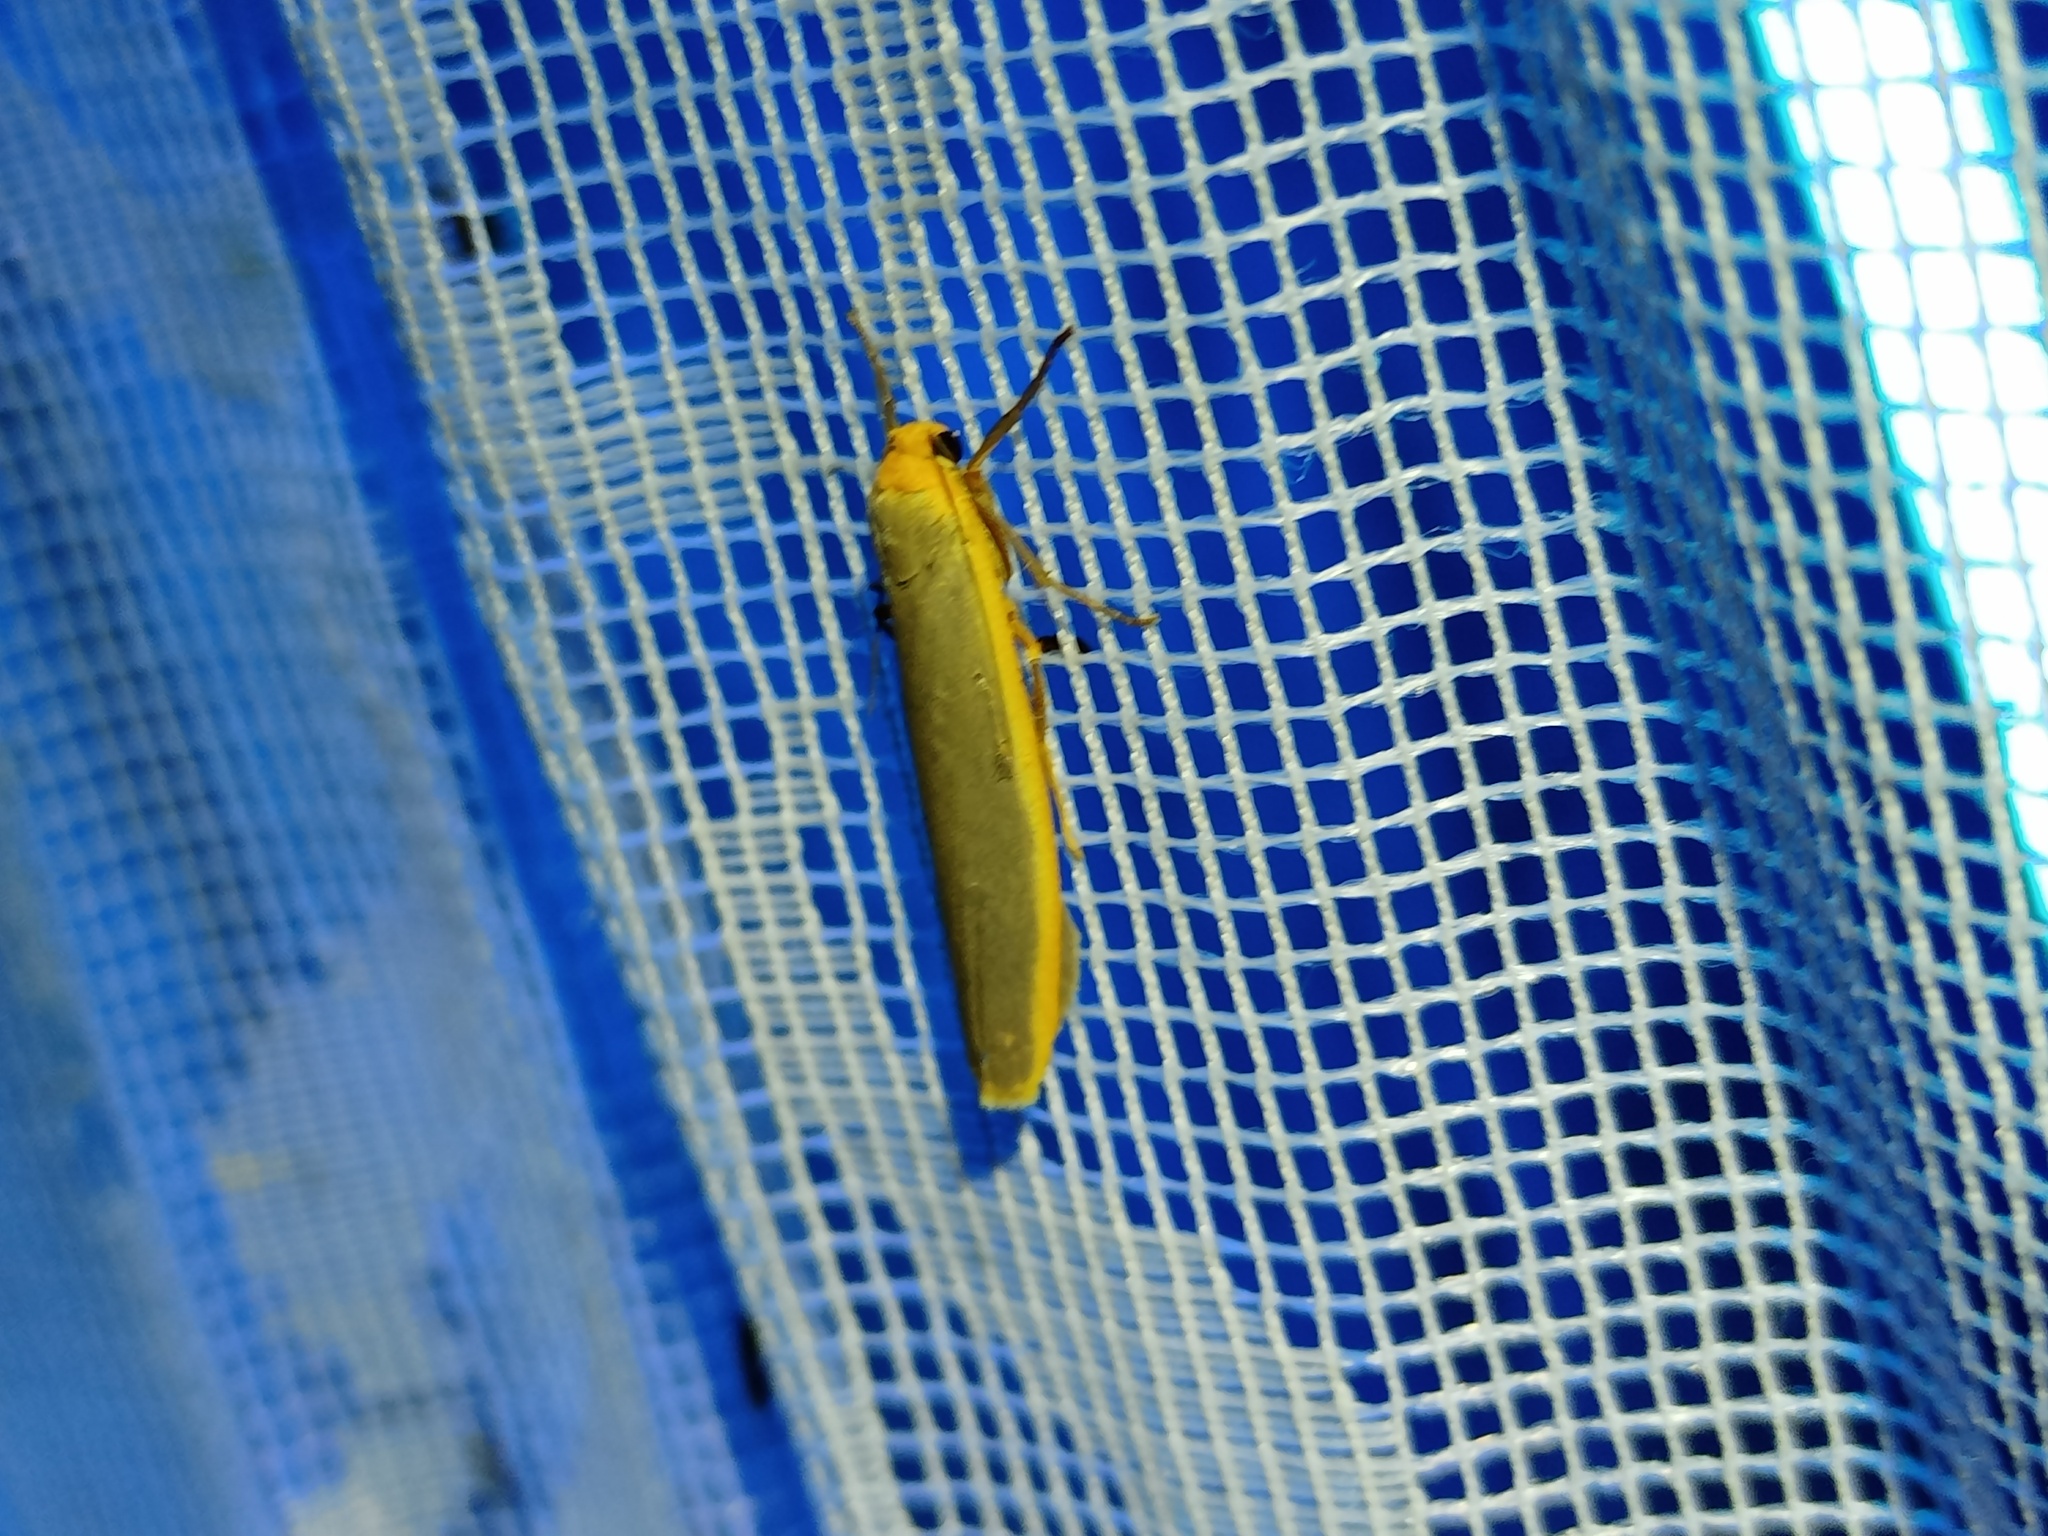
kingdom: Animalia
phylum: Arthropoda
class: Insecta
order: Lepidoptera
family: Erebidae
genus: Manulea
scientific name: Manulea complana
